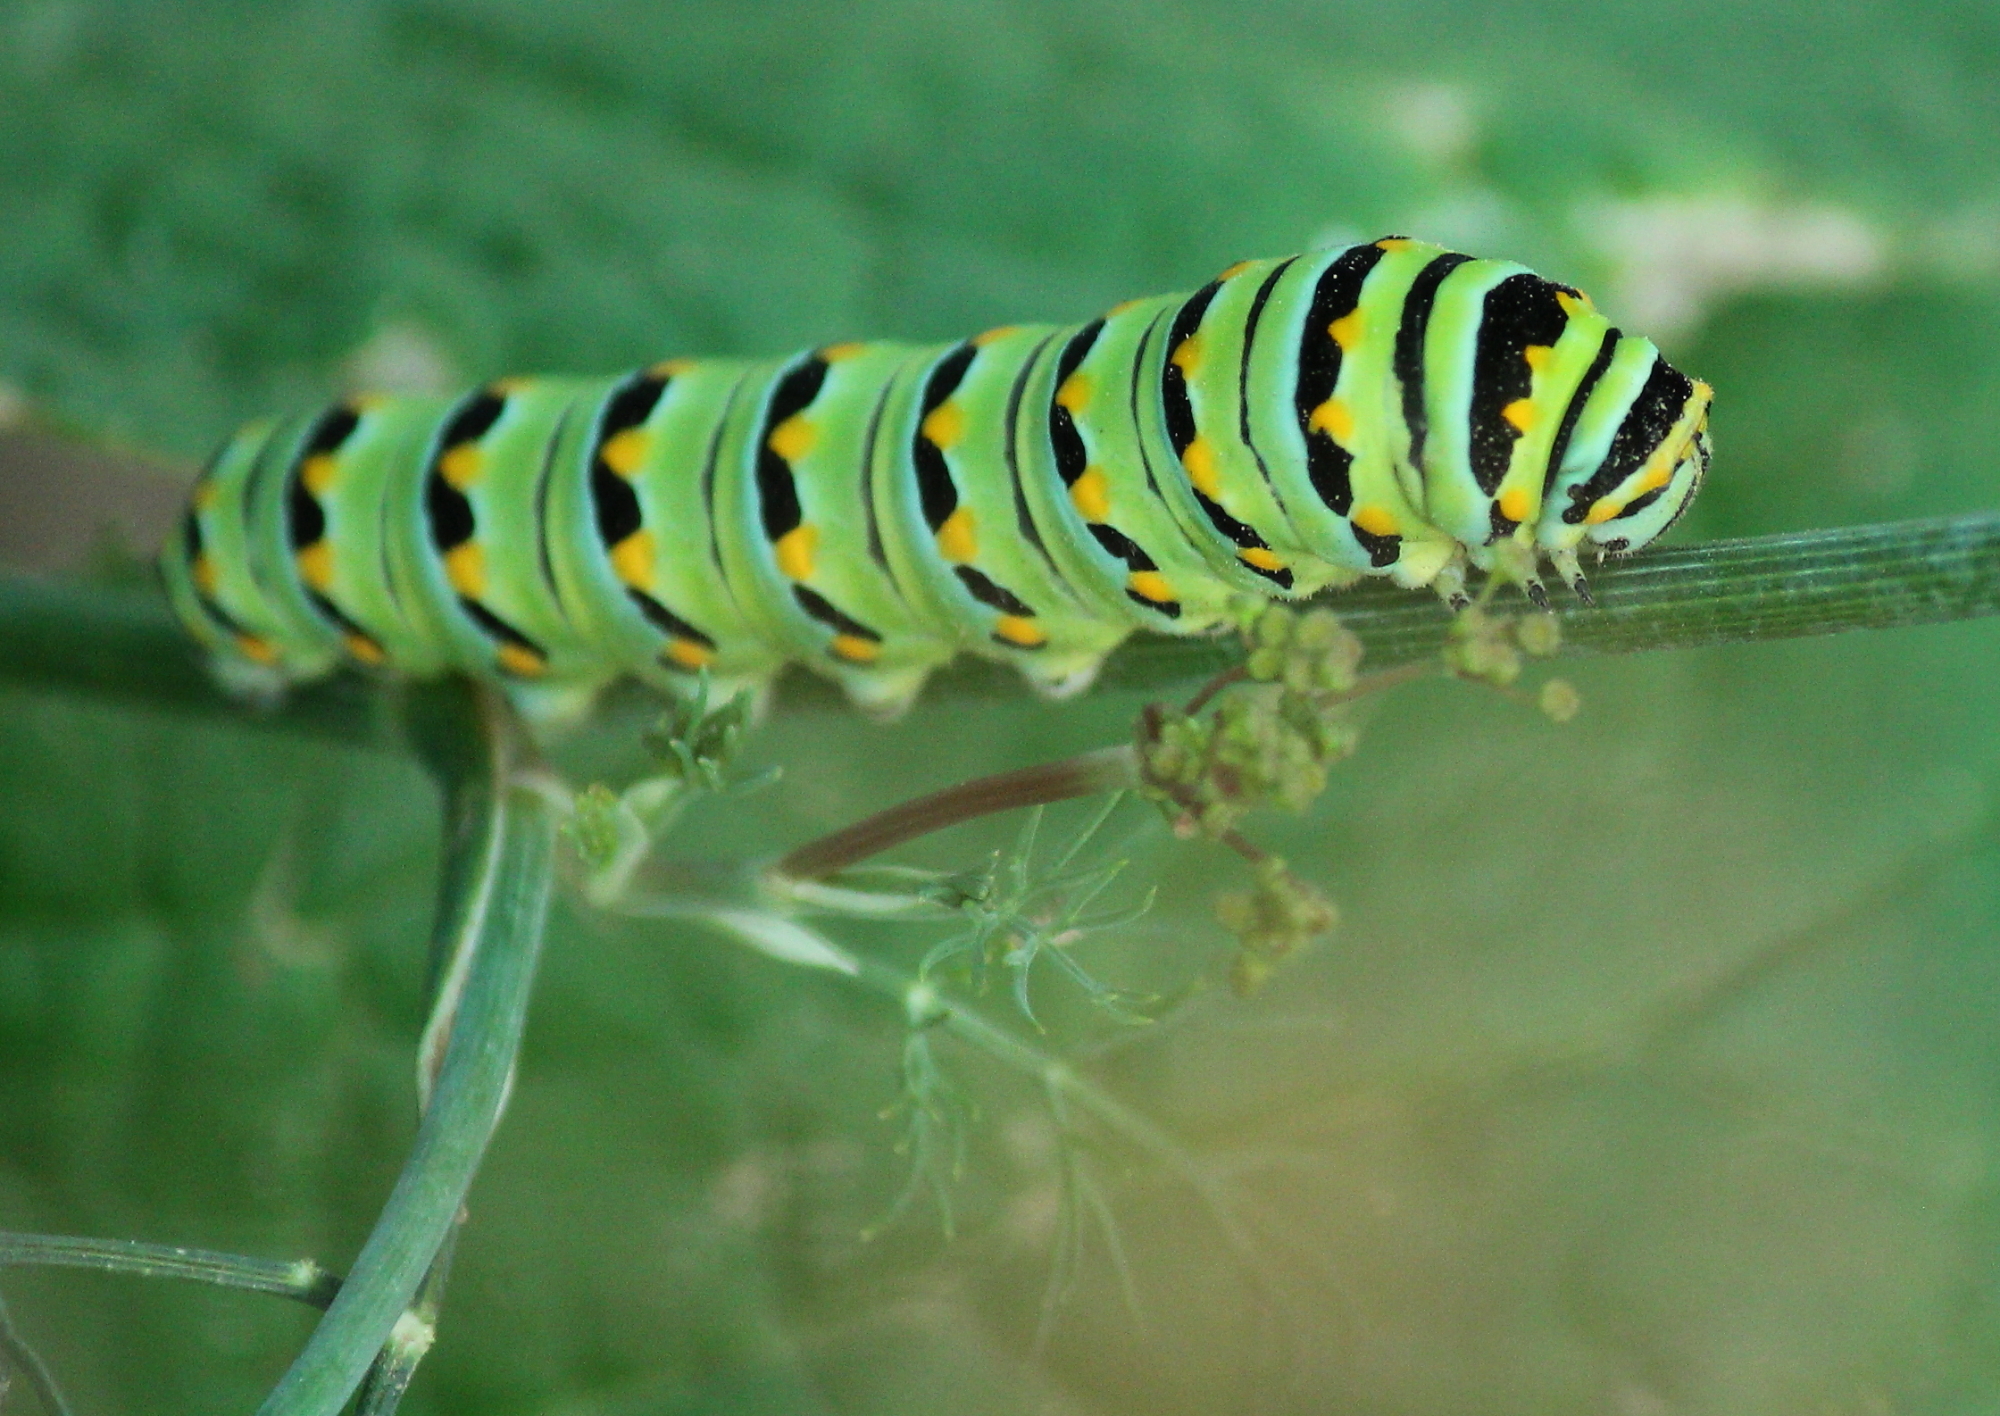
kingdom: Animalia
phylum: Arthropoda
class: Insecta
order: Lepidoptera
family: Papilionidae
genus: Papilio
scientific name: Papilio polyxenes
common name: Black swallowtail
